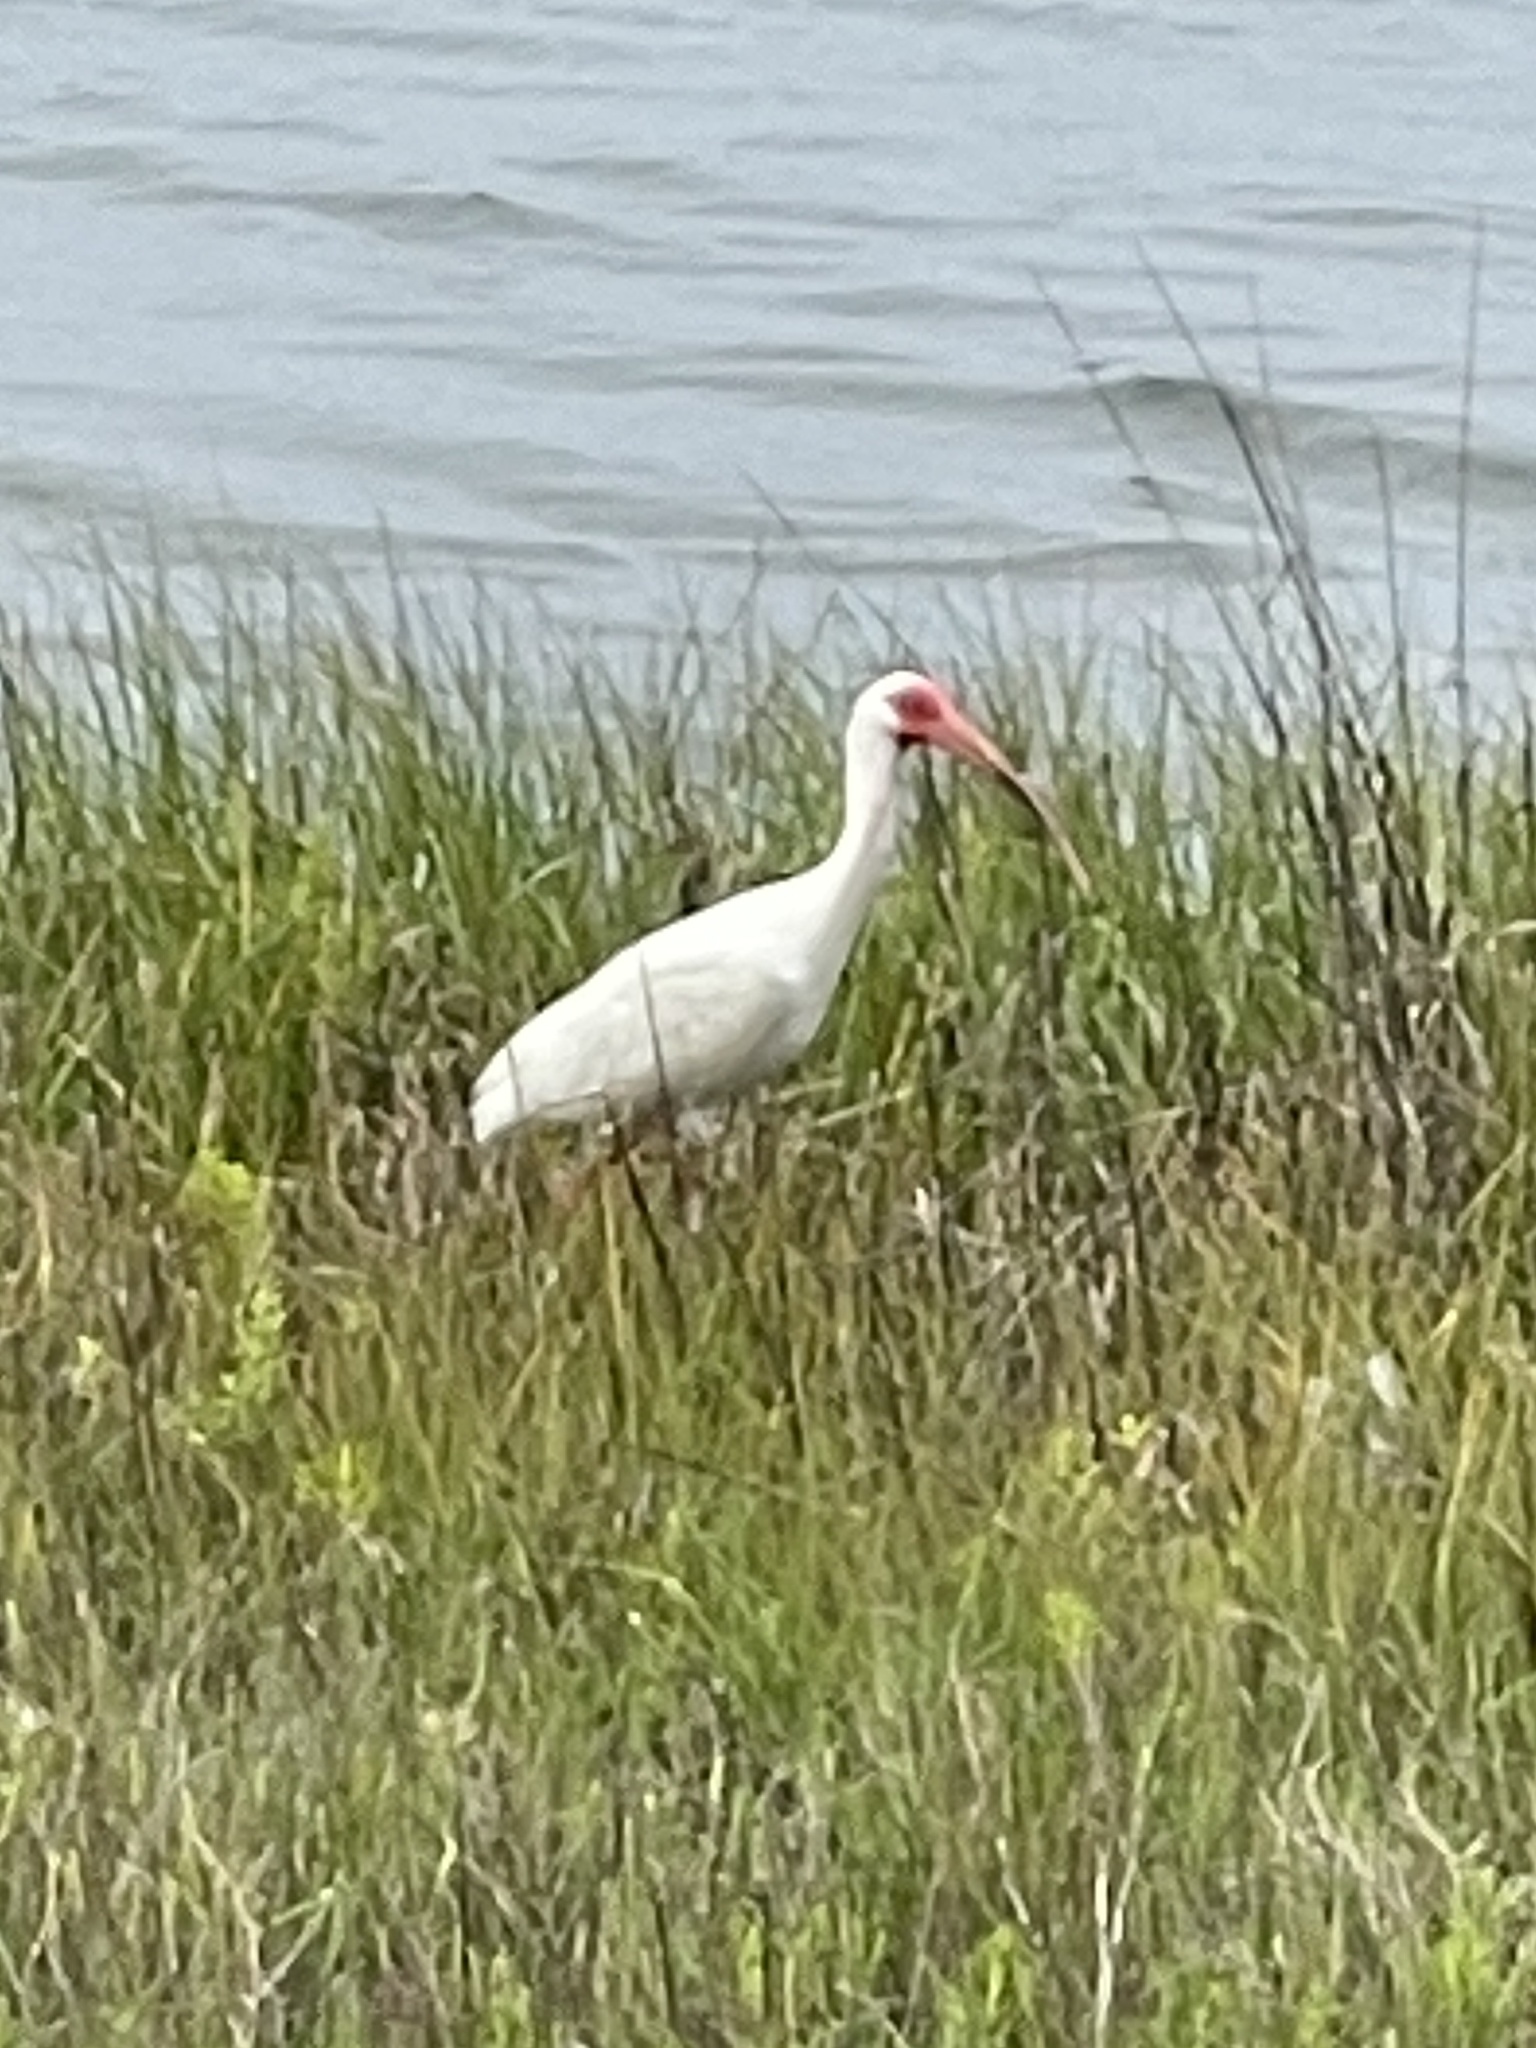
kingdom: Animalia
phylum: Chordata
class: Aves
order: Pelecaniformes
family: Threskiornithidae
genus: Eudocimus
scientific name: Eudocimus albus
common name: White ibis
